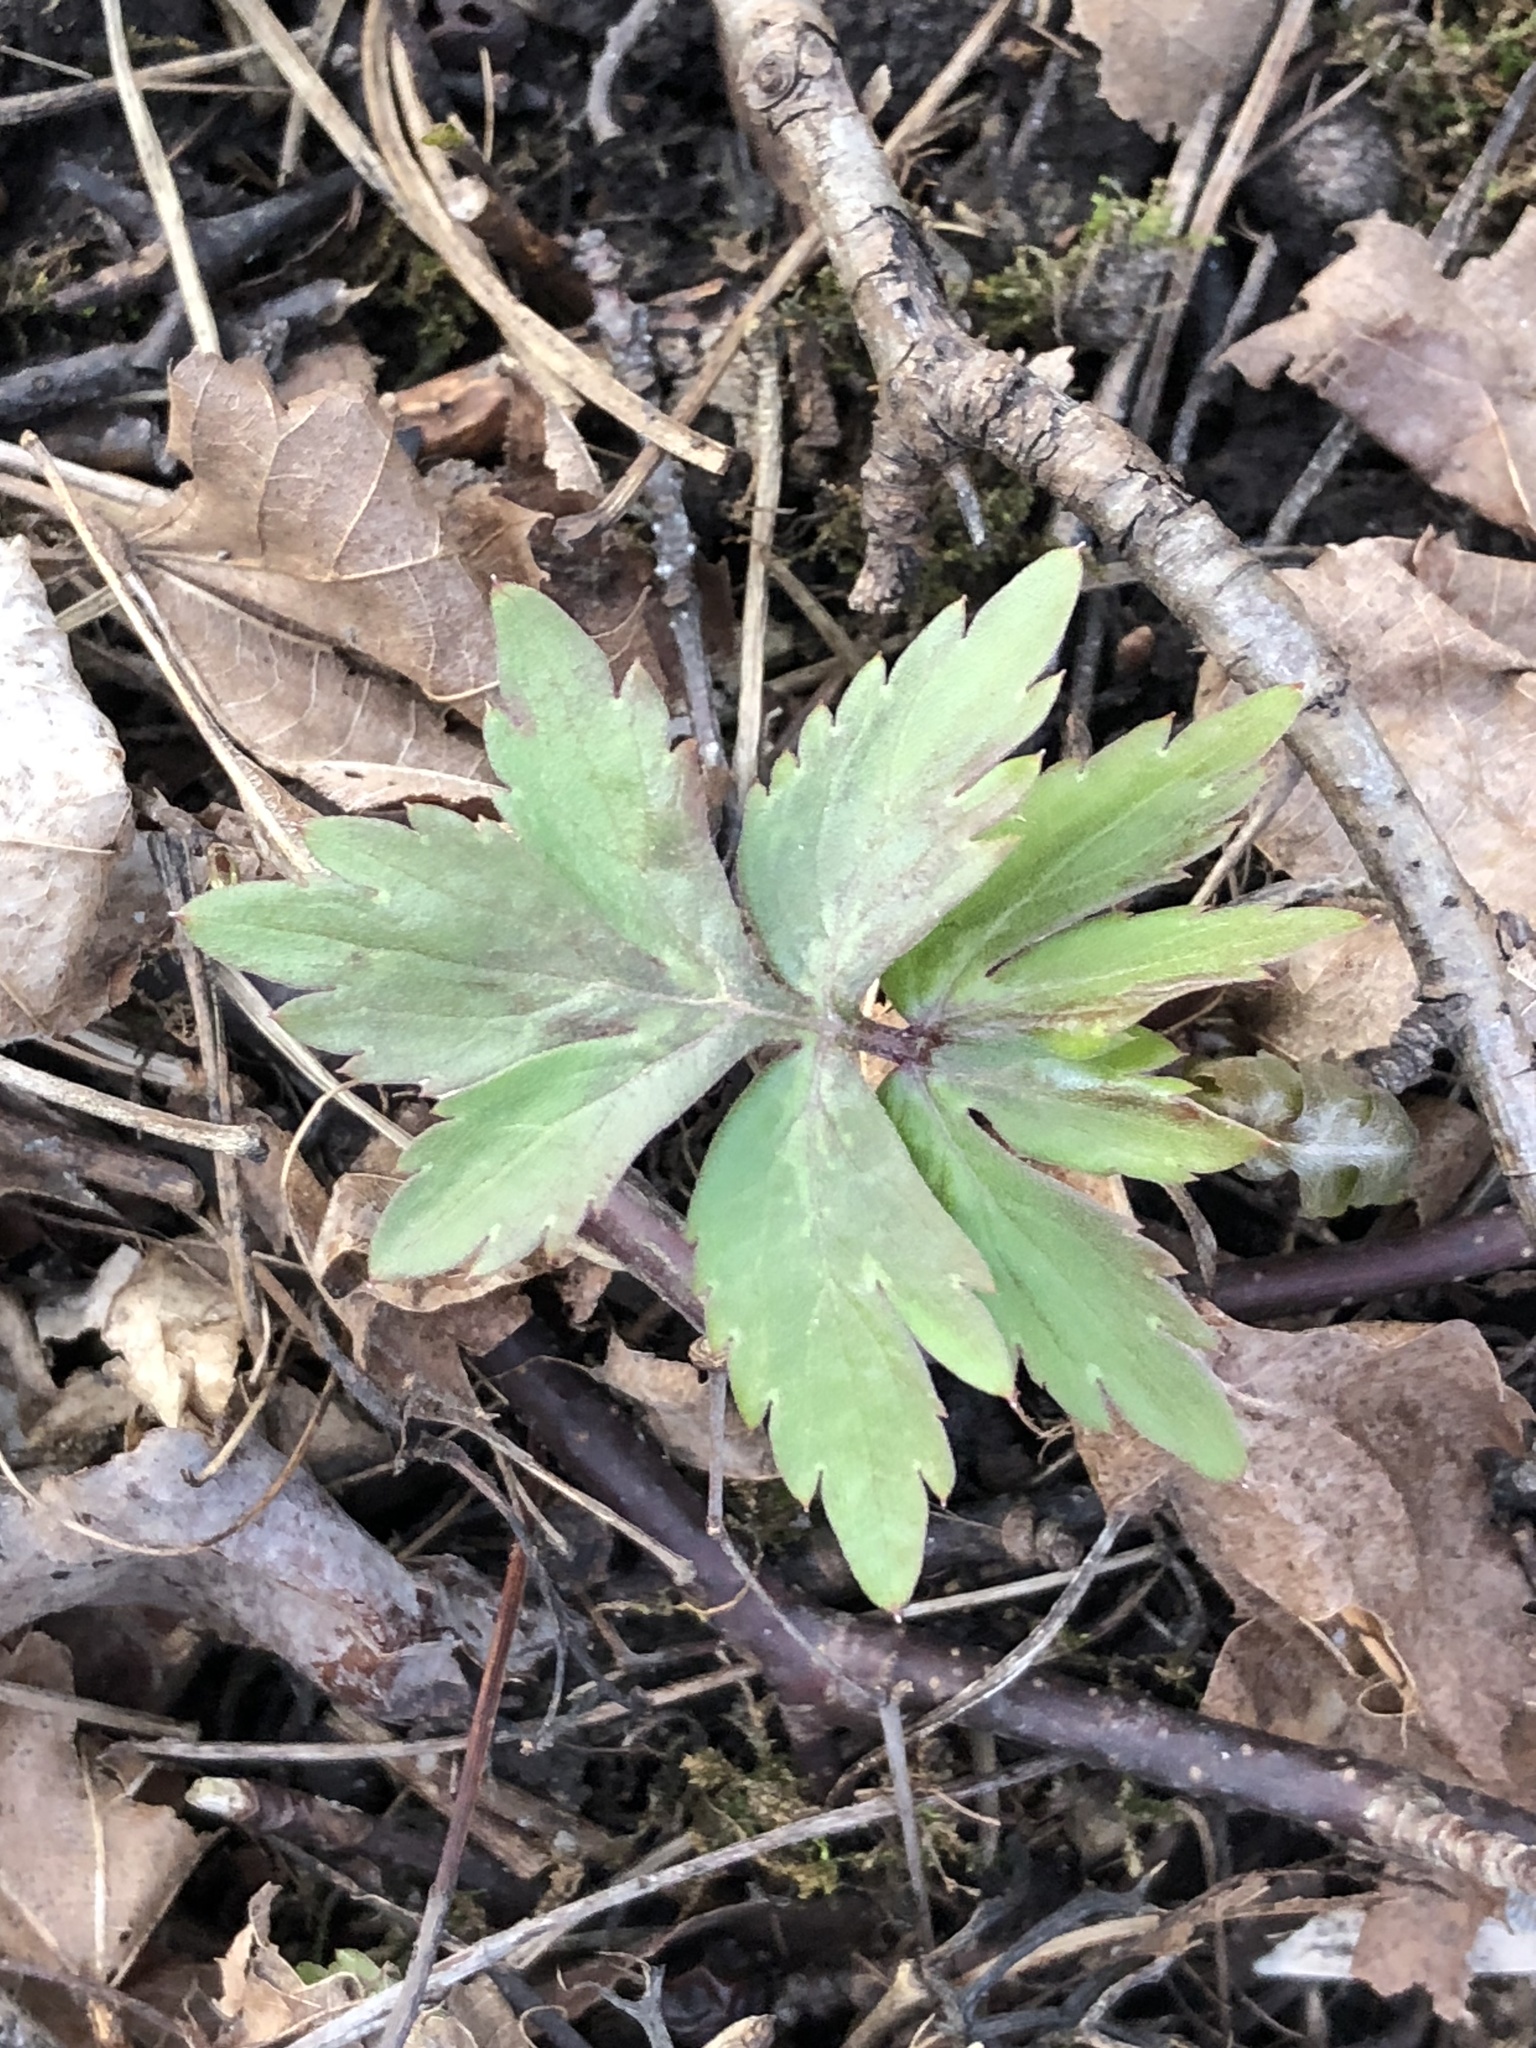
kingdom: Plantae
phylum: Tracheophyta
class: Magnoliopsida
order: Boraginales
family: Hydrophyllaceae
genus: Hydrophyllum
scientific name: Hydrophyllum virginianum
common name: Virginia waterleaf
